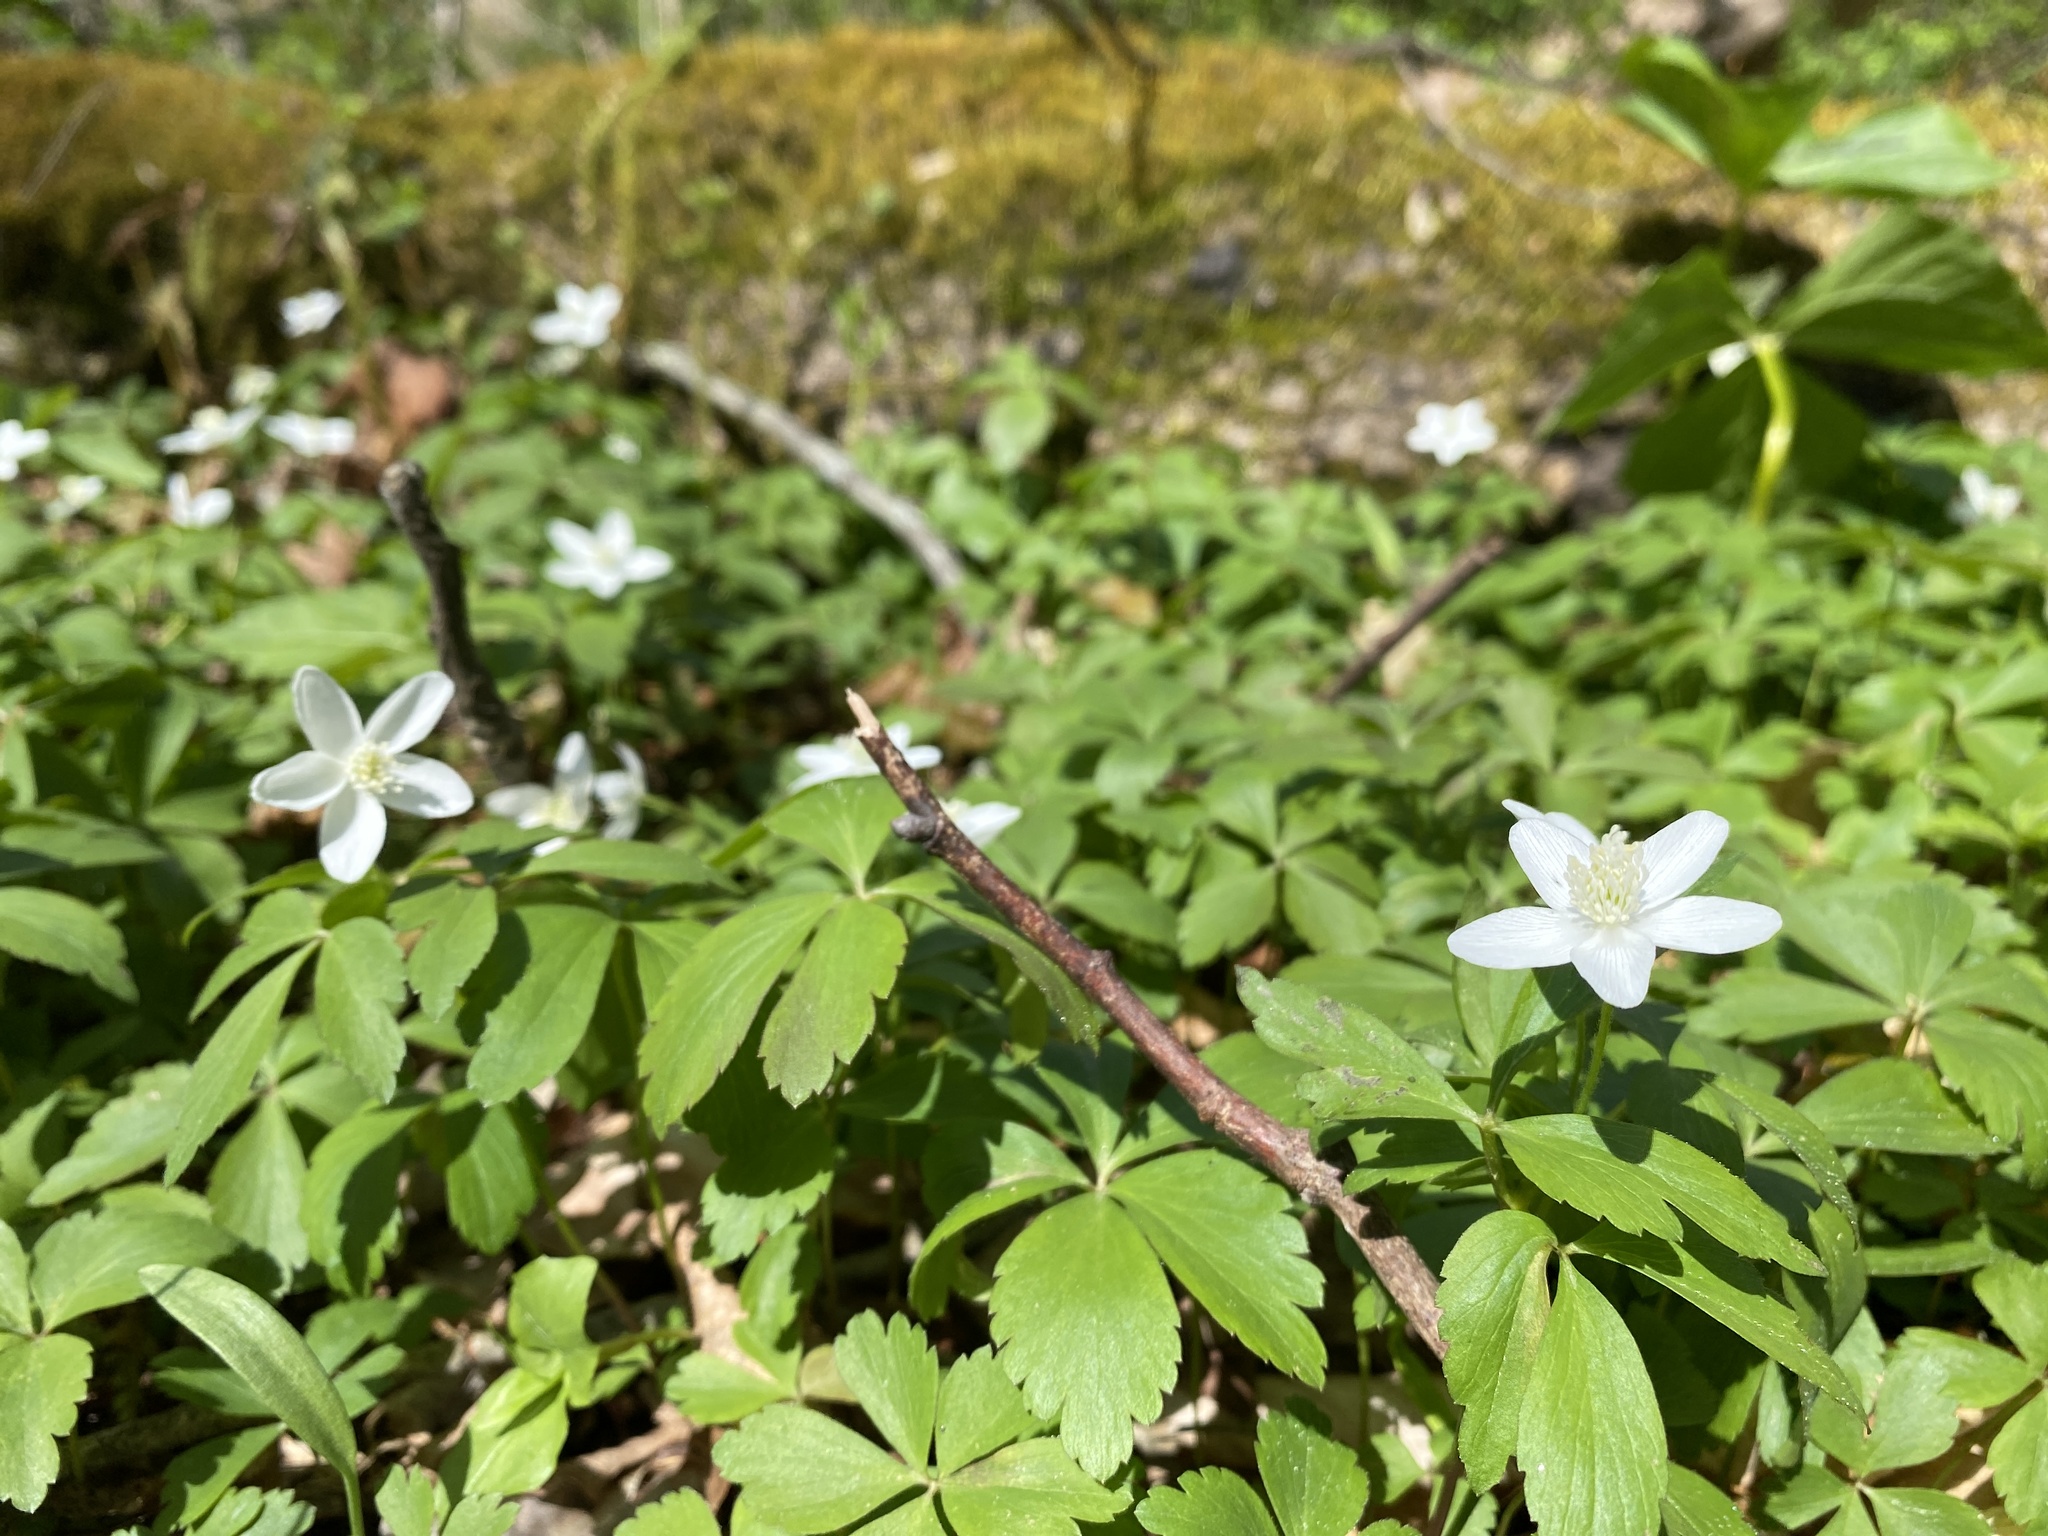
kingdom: Plantae
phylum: Tracheophyta
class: Magnoliopsida
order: Ranunculales
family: Ranunculaceae
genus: Anemone
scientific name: Anemone quinquefolia
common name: Wood anemone
